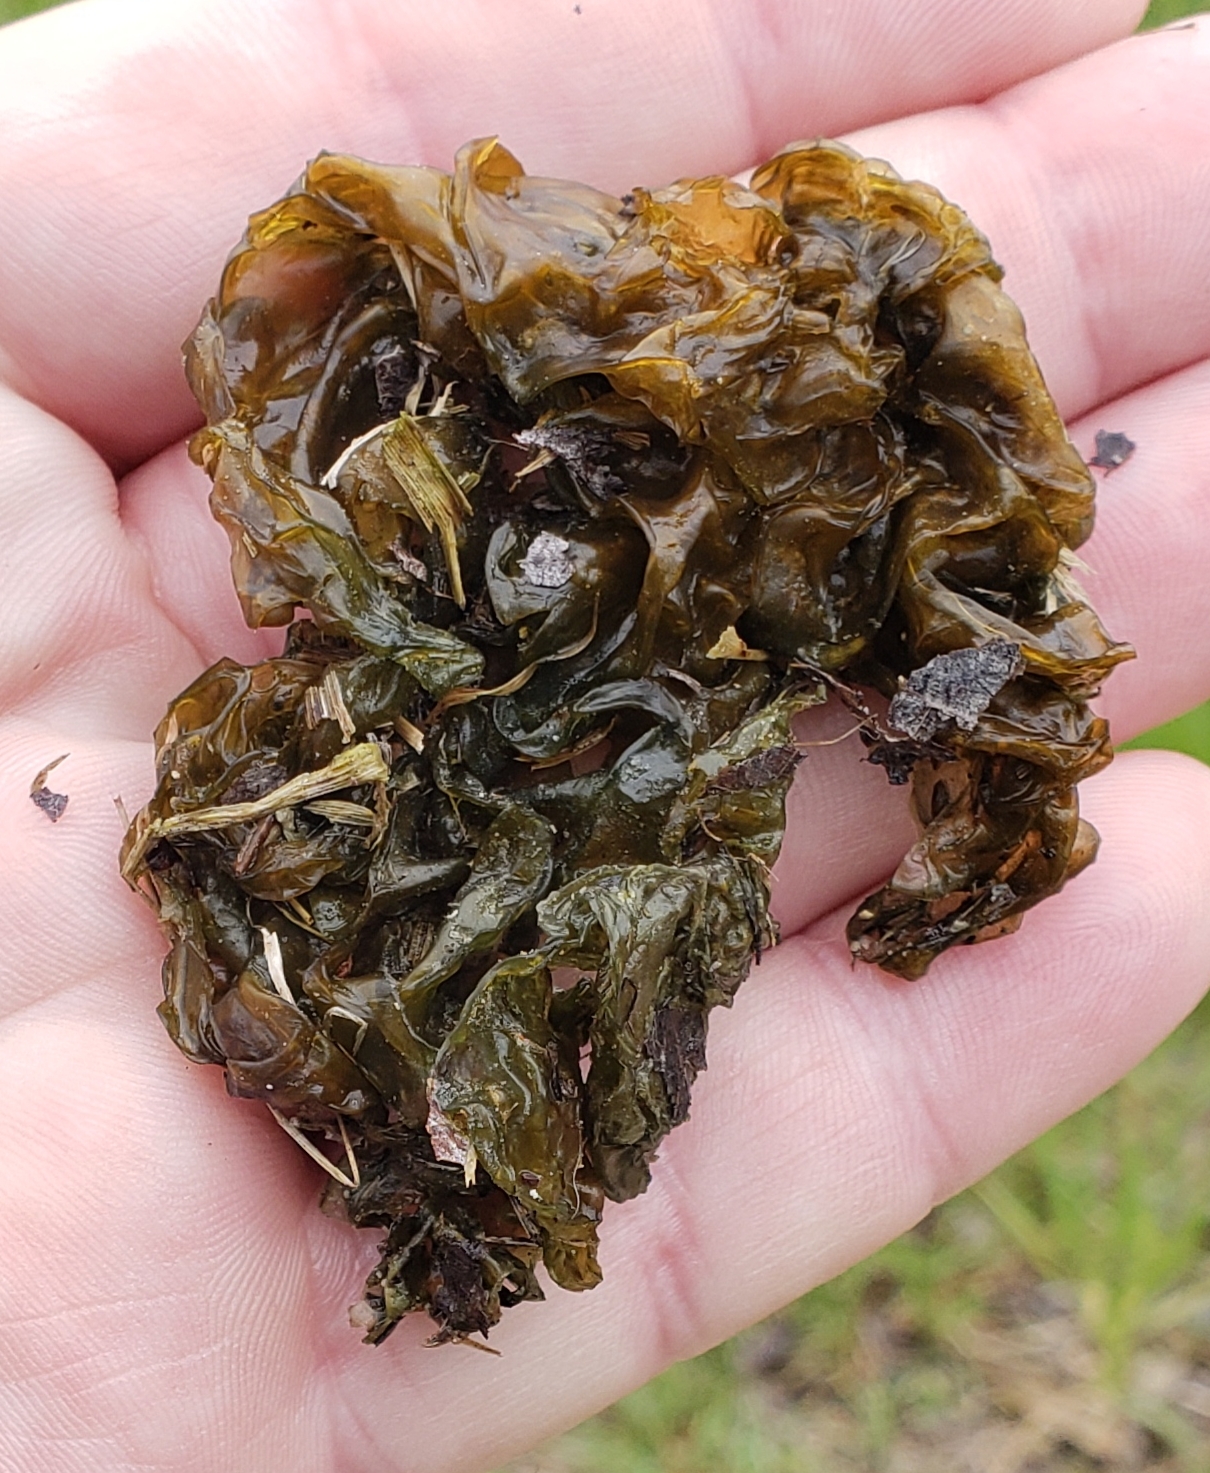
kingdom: Bacteria
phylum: Cyanobacteria
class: Cyanobacteriia
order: Cyanobacteriales
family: Nostocaceae
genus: Nostoc
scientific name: Nostoc commune
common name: Star jelly
